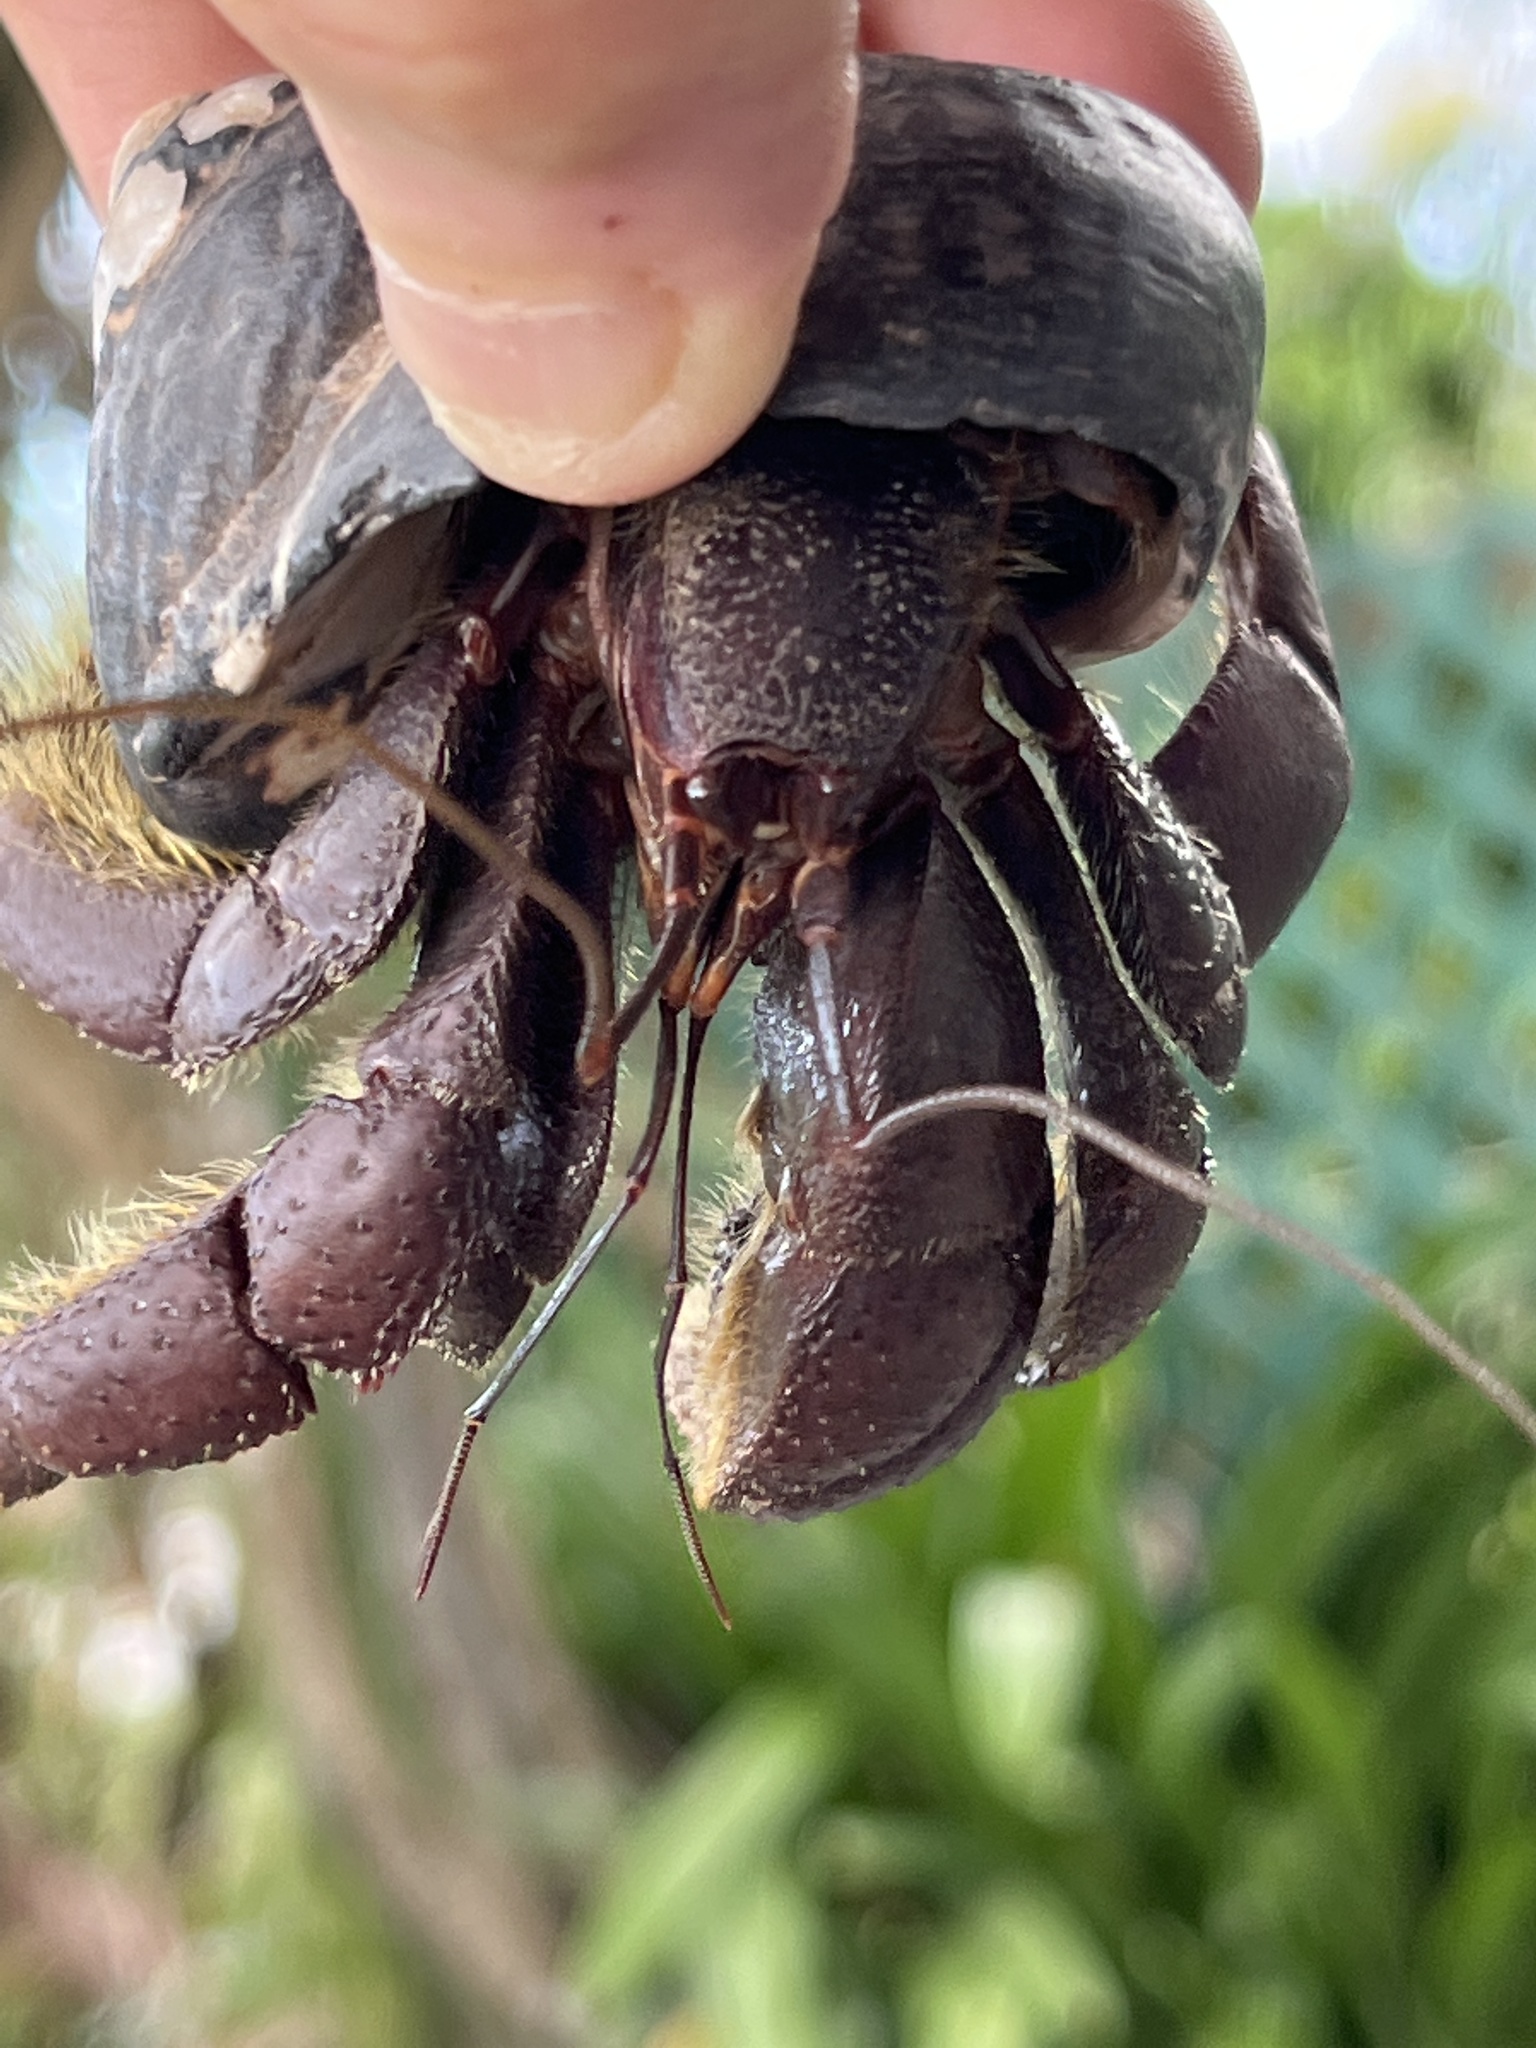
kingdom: Animalia
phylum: Arthropoda
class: Malacostraca
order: Decapoda
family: Coenobitidae
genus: Coenobita
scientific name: Coenobita clypeatus
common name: Caribbean hermit crab
